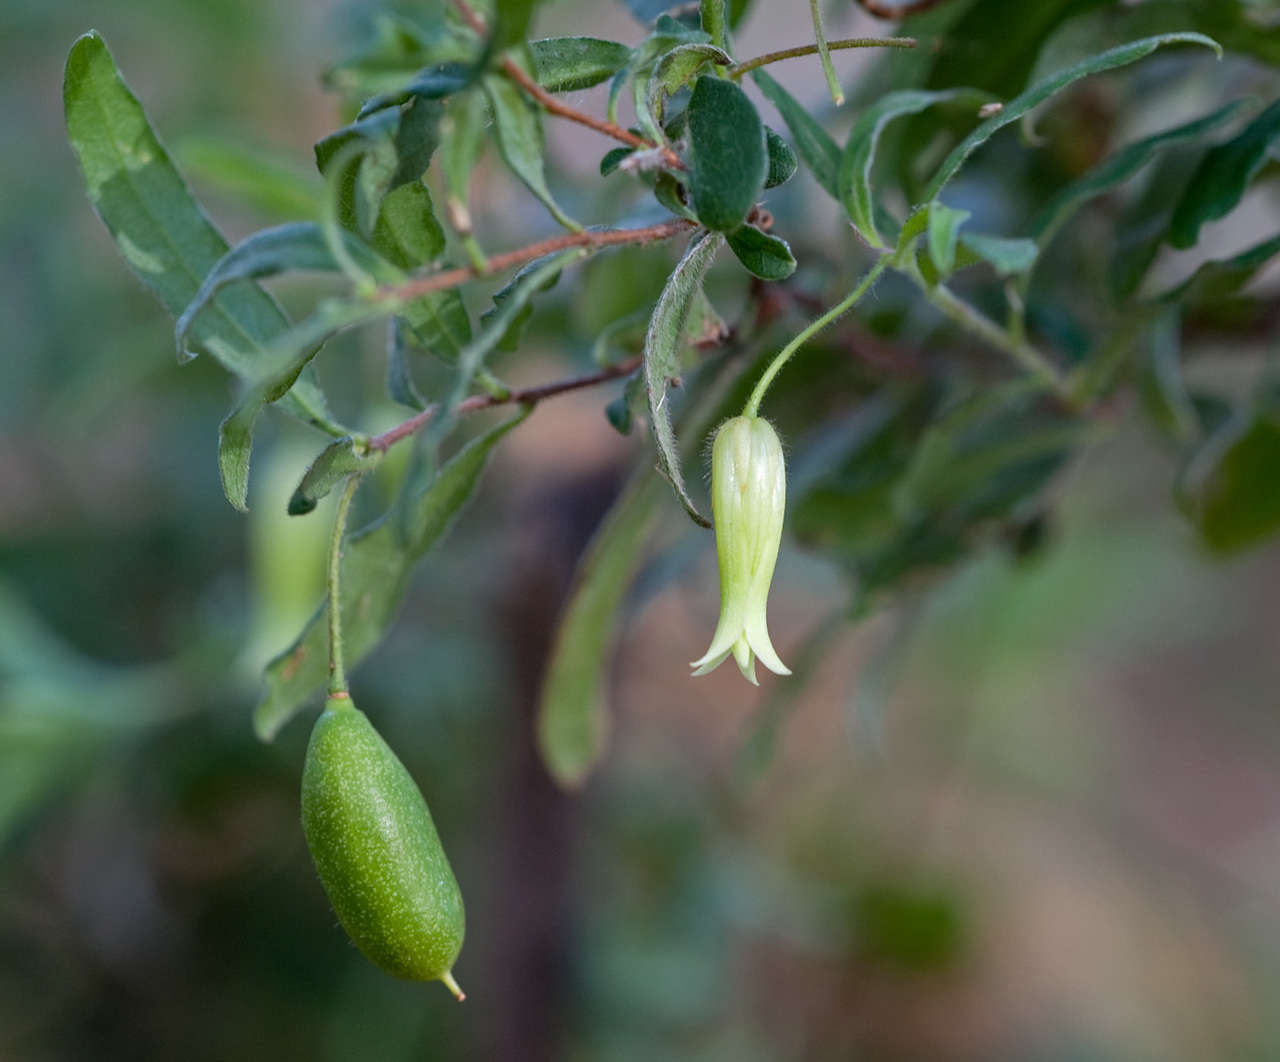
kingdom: Plantae
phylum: Tracheophyta
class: Magnoliopsida
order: Apiales
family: Pittosporaceae
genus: Billardiera
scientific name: Billardiera mutabilis
